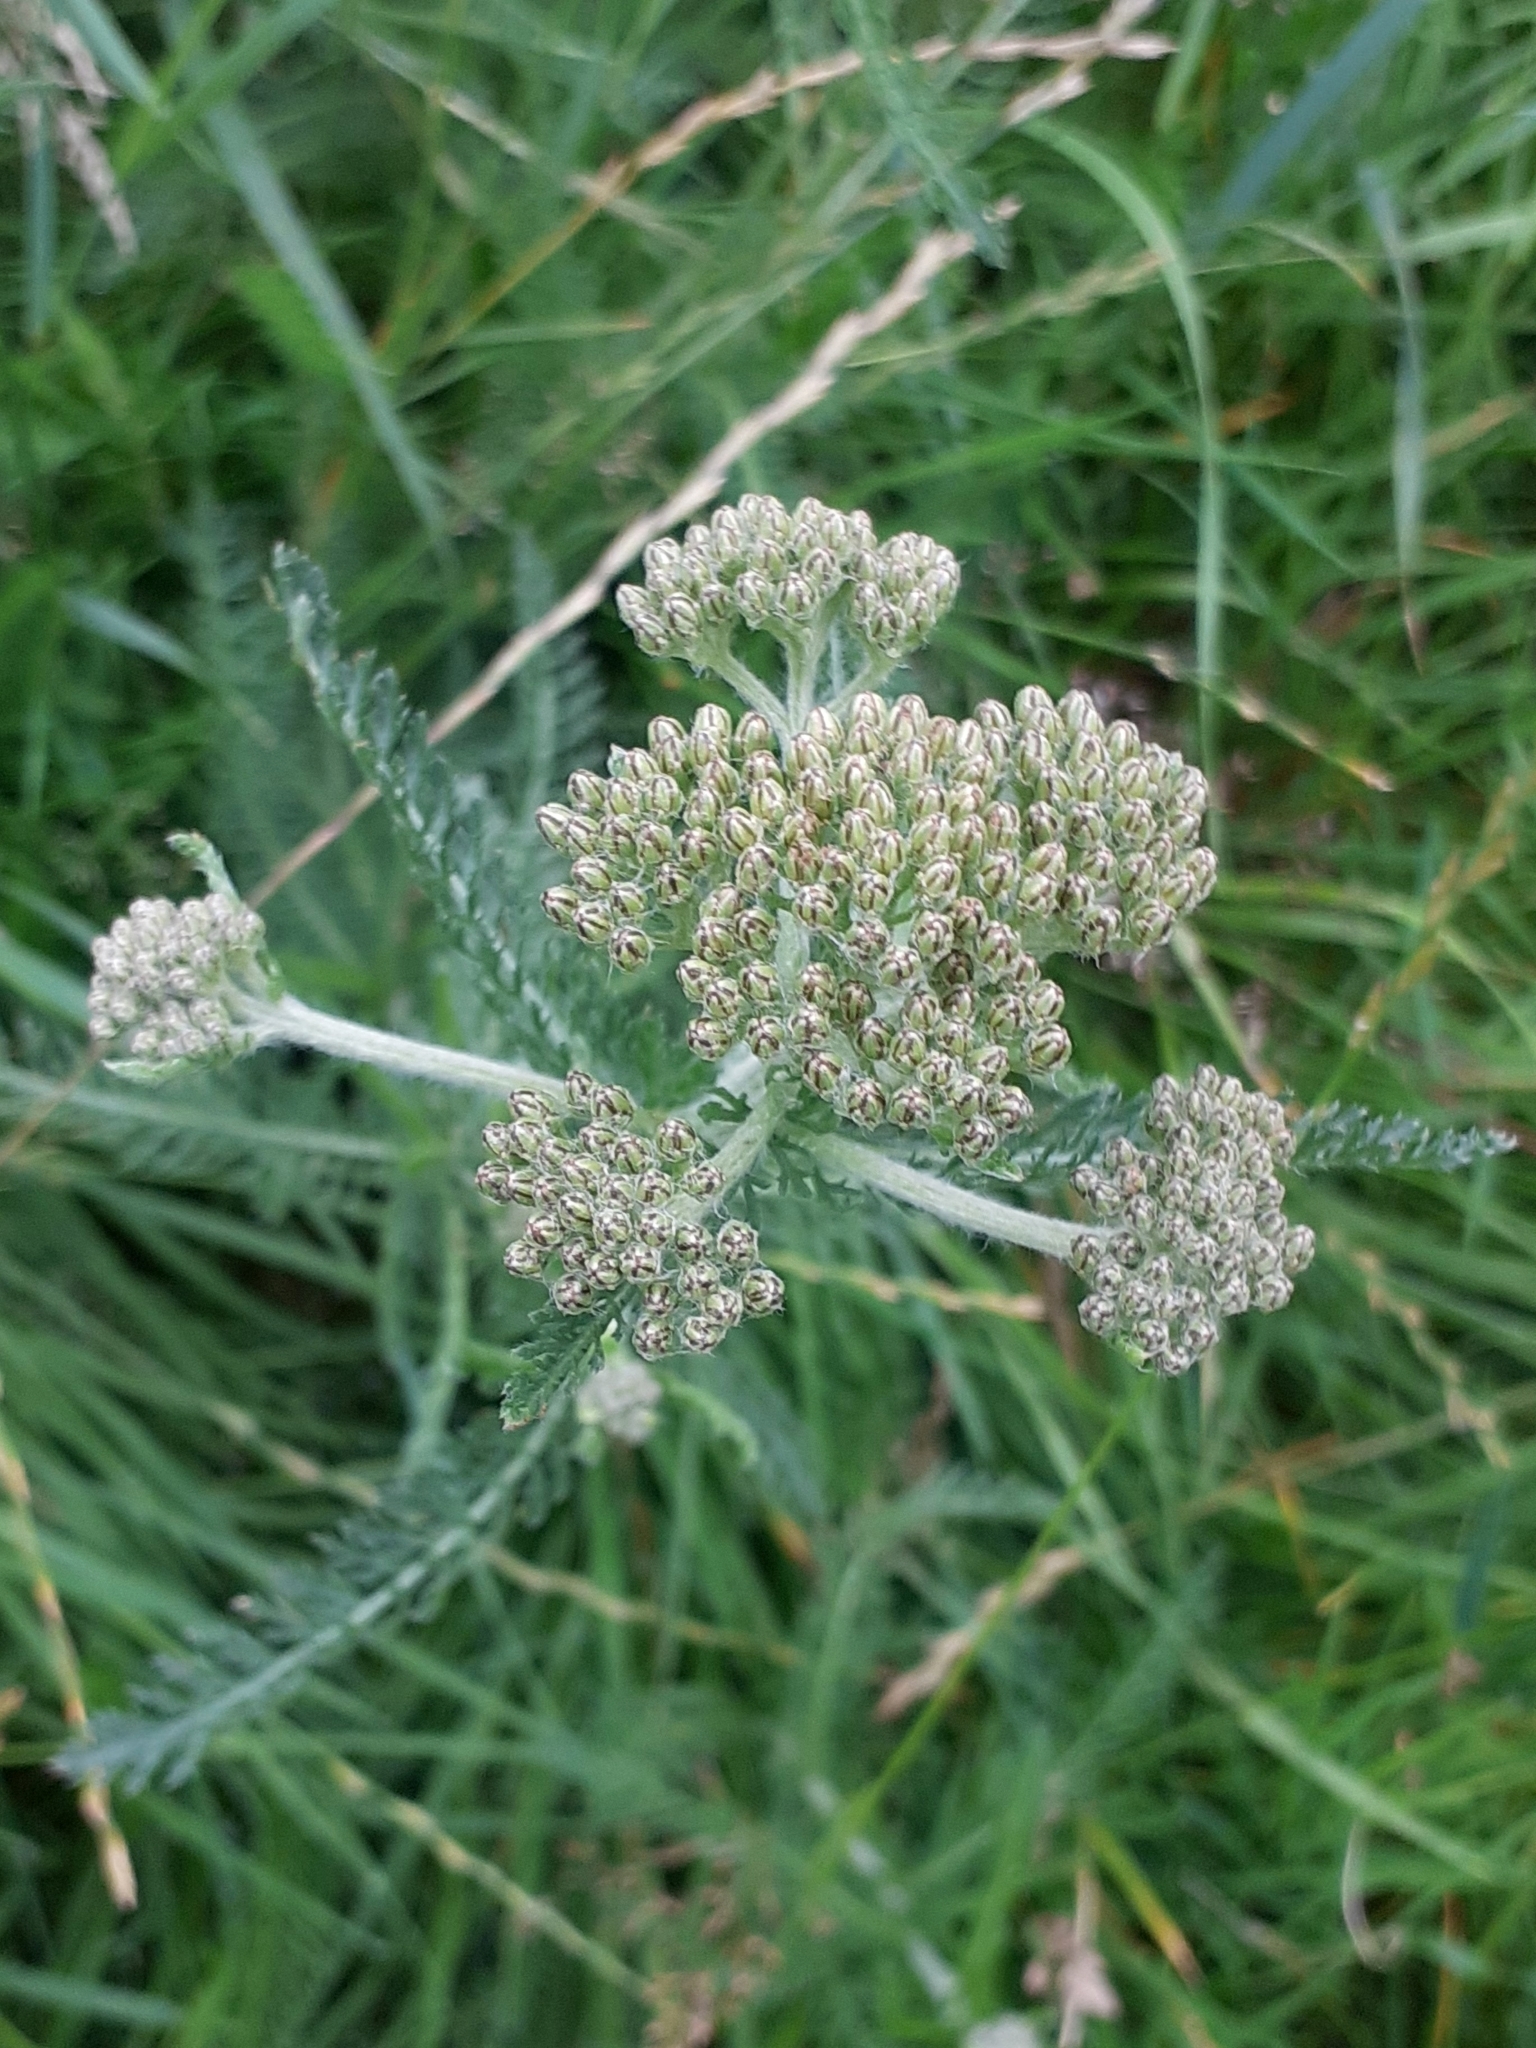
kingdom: Plantae
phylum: Tracheophyta
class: Magnoliopsida
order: Asterales
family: Asteraceae
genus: Achillea
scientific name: Achillea millefolium
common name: Yarrow
